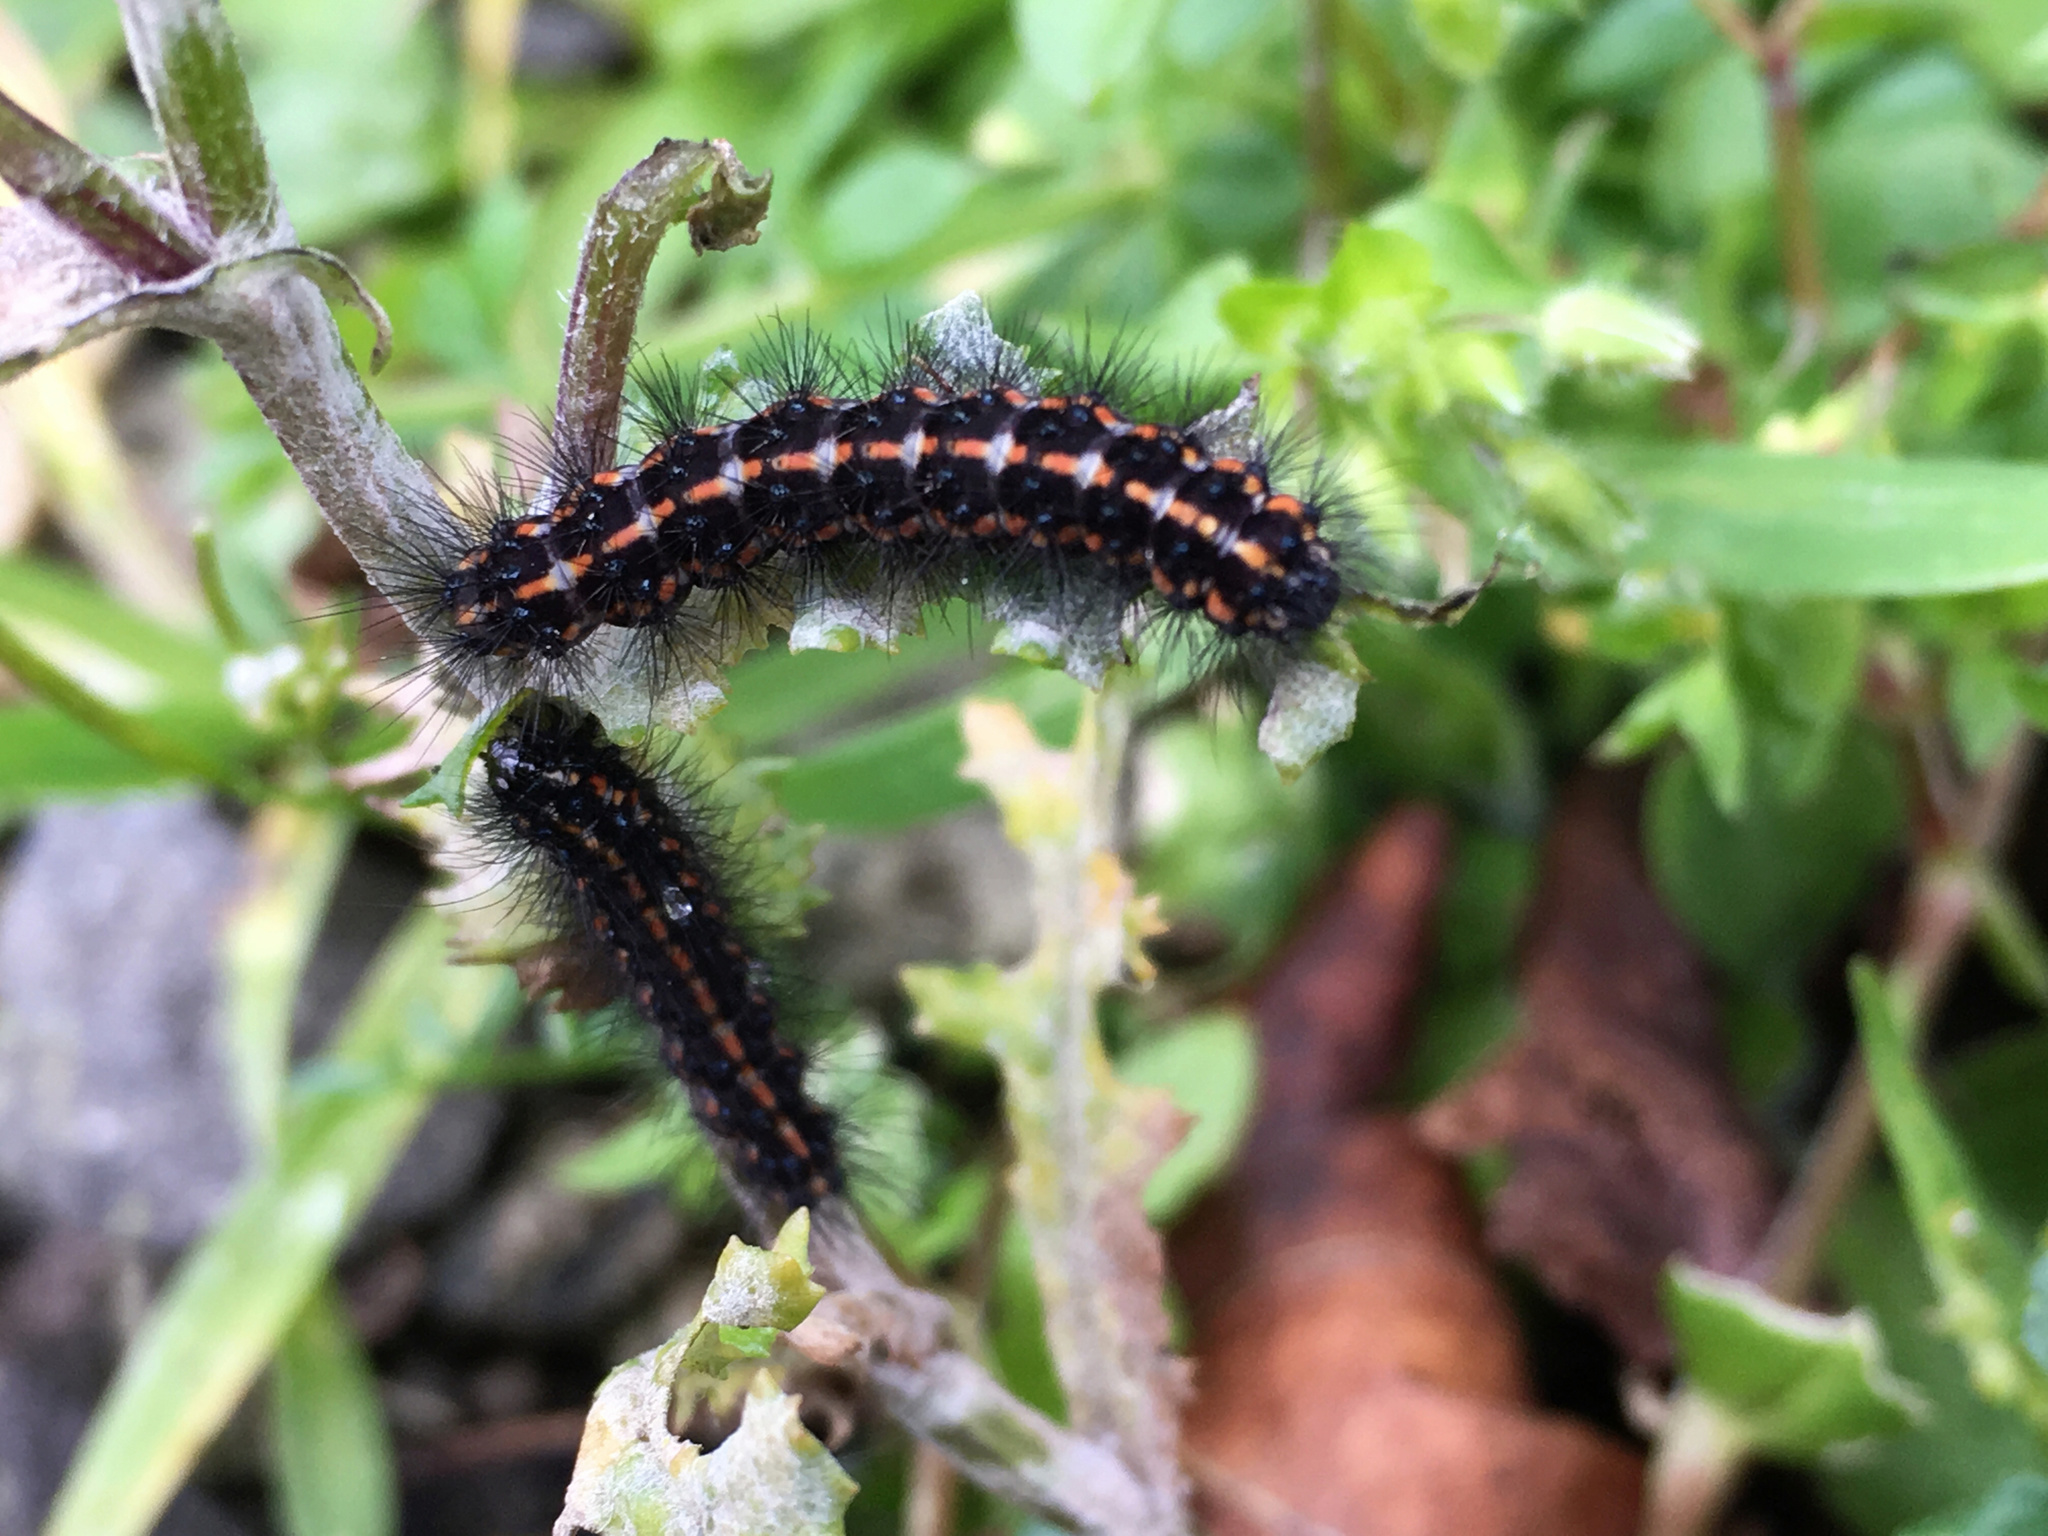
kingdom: Animalia
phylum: Arthropoda
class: Insecta
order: Lepidoptera
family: Erebidae
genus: Nyctemera
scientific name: Nyctemera annulatum
